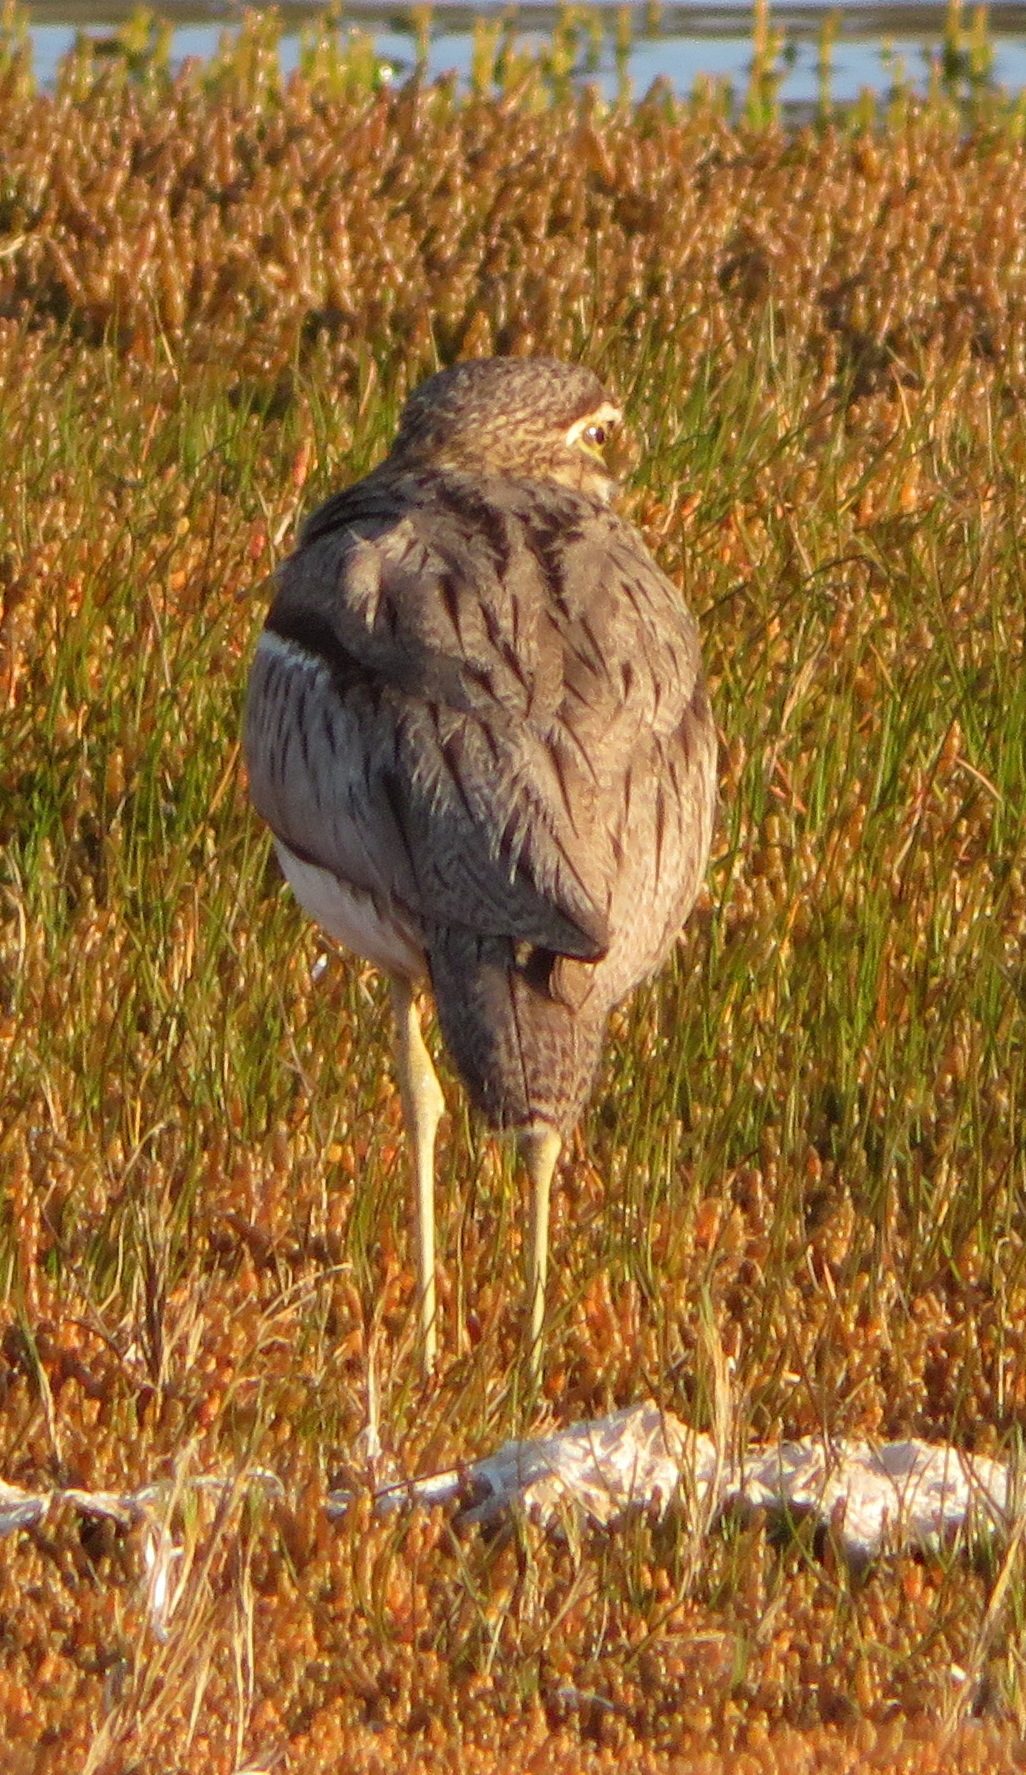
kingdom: Animalia
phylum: Chordata
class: Aves
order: Charadriiformes
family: Burhinidae
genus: Burhinus
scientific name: Burhinus vermiculatus
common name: Water thick-knee
